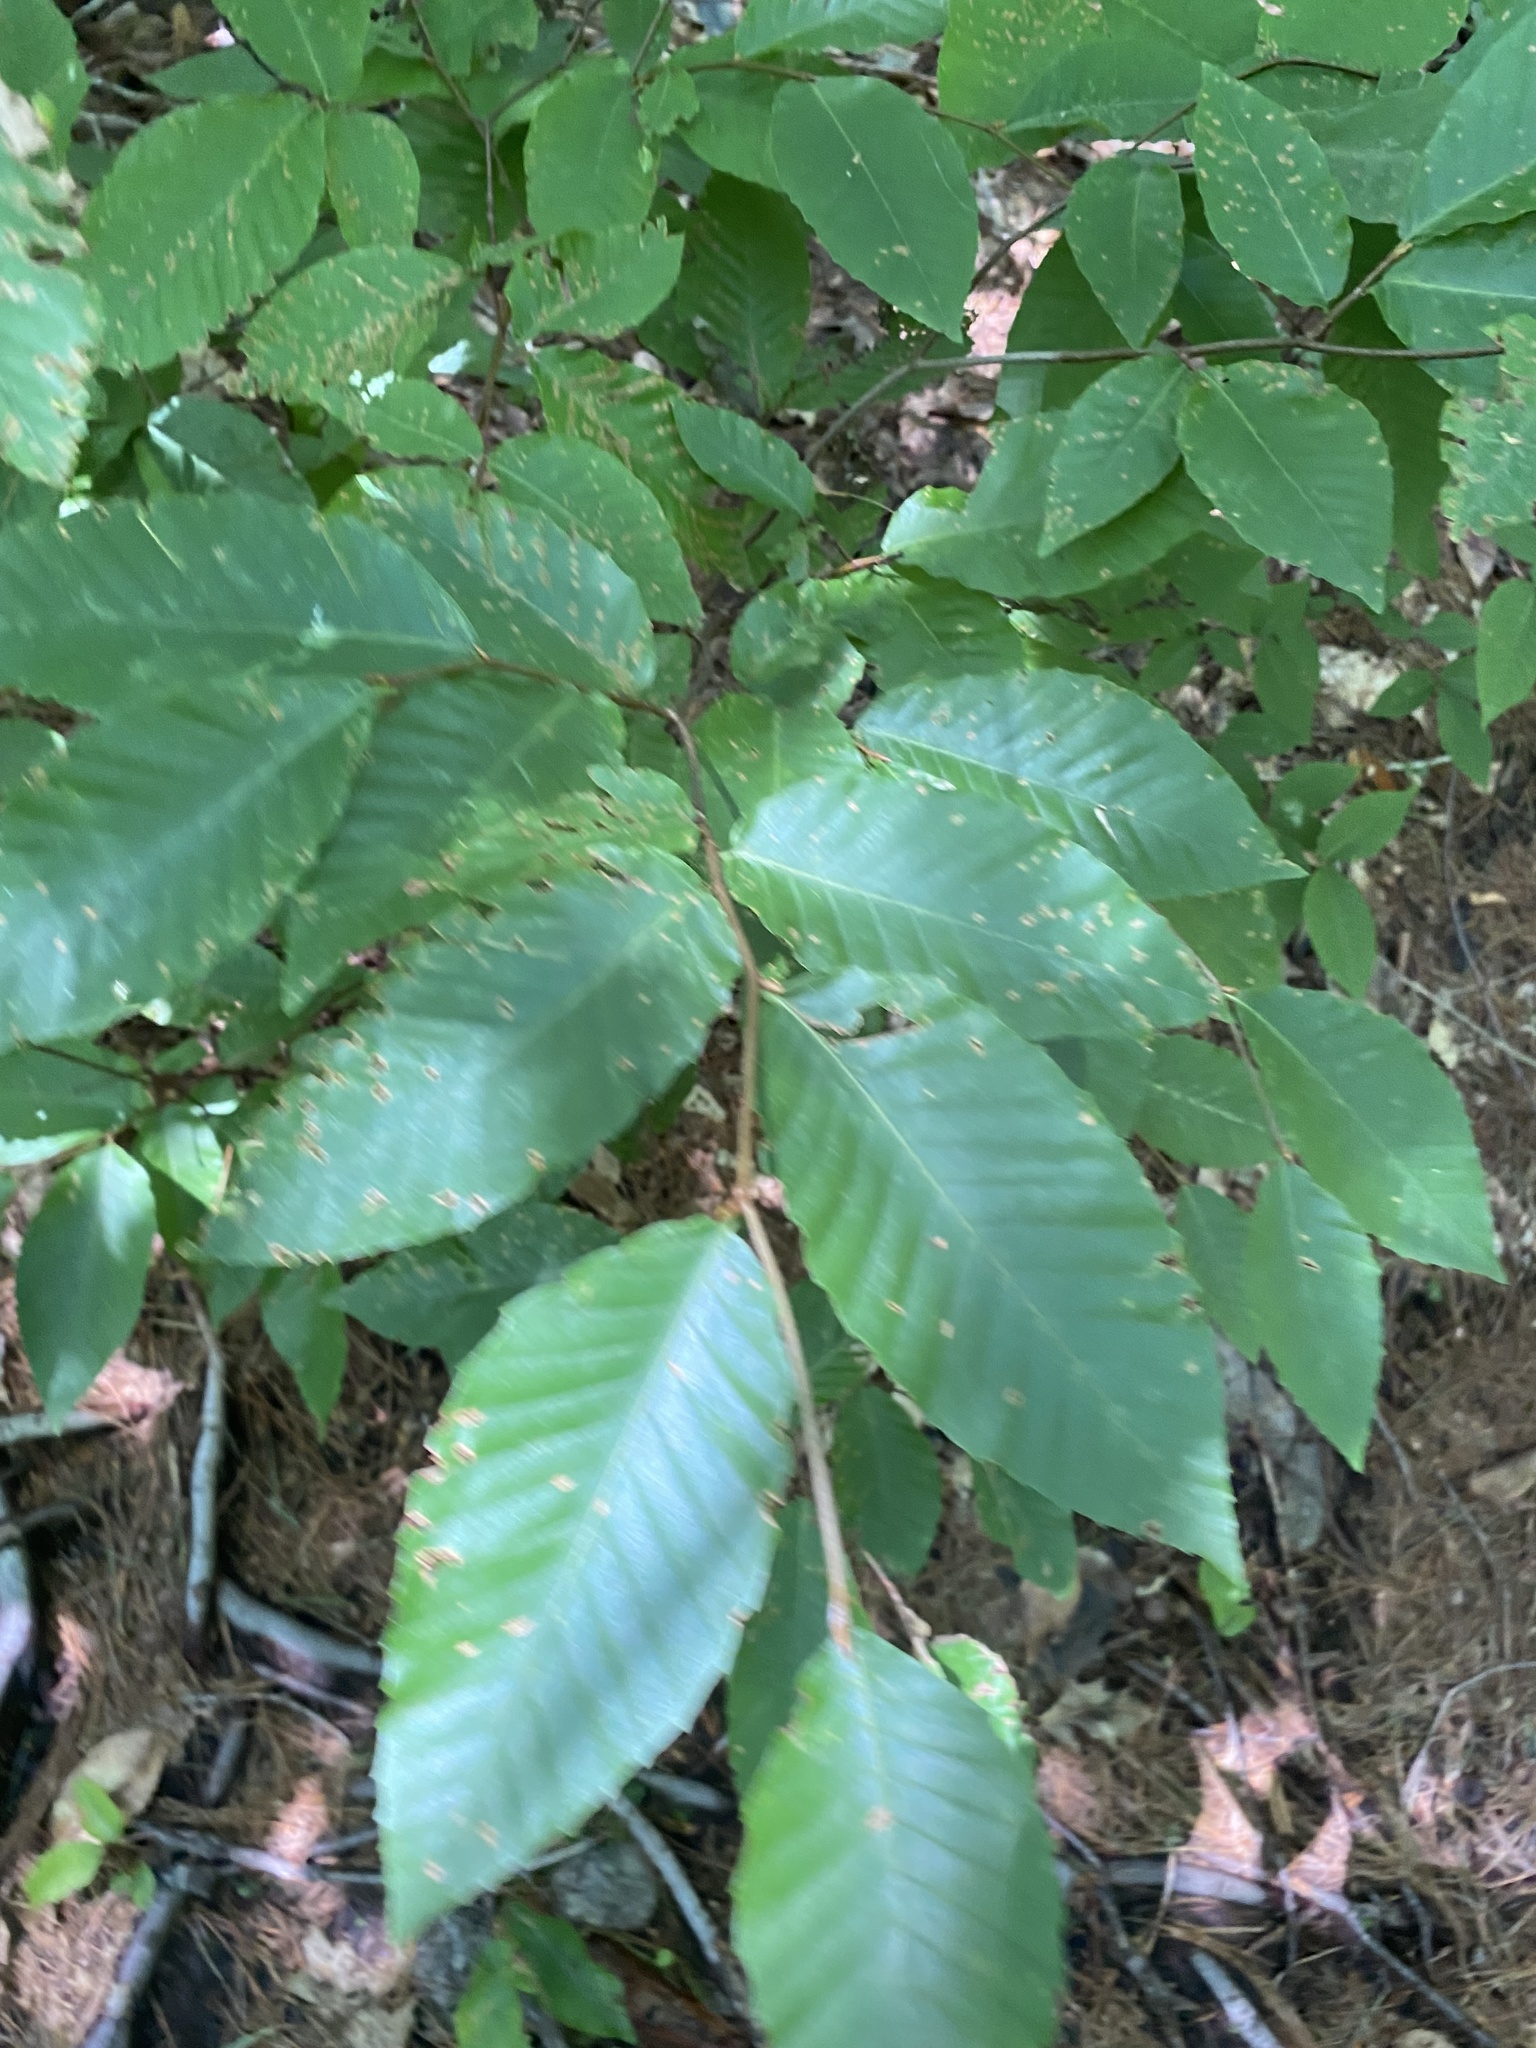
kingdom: Plantae
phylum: Tracheophyta
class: Magnoliopsida
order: Fagales
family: Fagaceae
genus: Fagus
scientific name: Fagus grandifolia
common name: American beech
